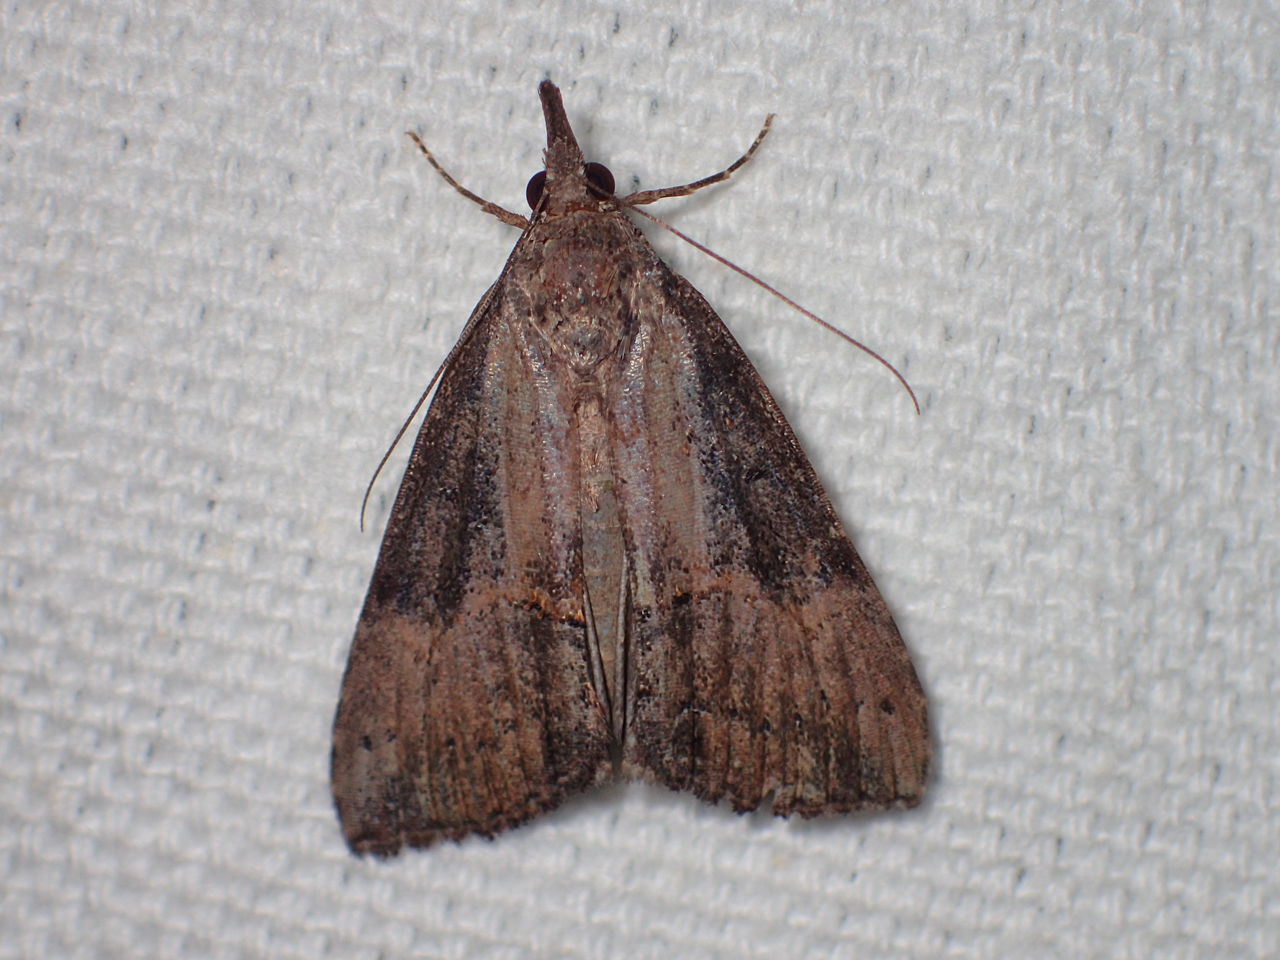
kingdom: Animalia
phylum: Arthropoda
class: Insecta
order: Lepidoptera
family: Erebidae
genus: Hypena
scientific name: Hypena scabra
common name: Green cloverworm
